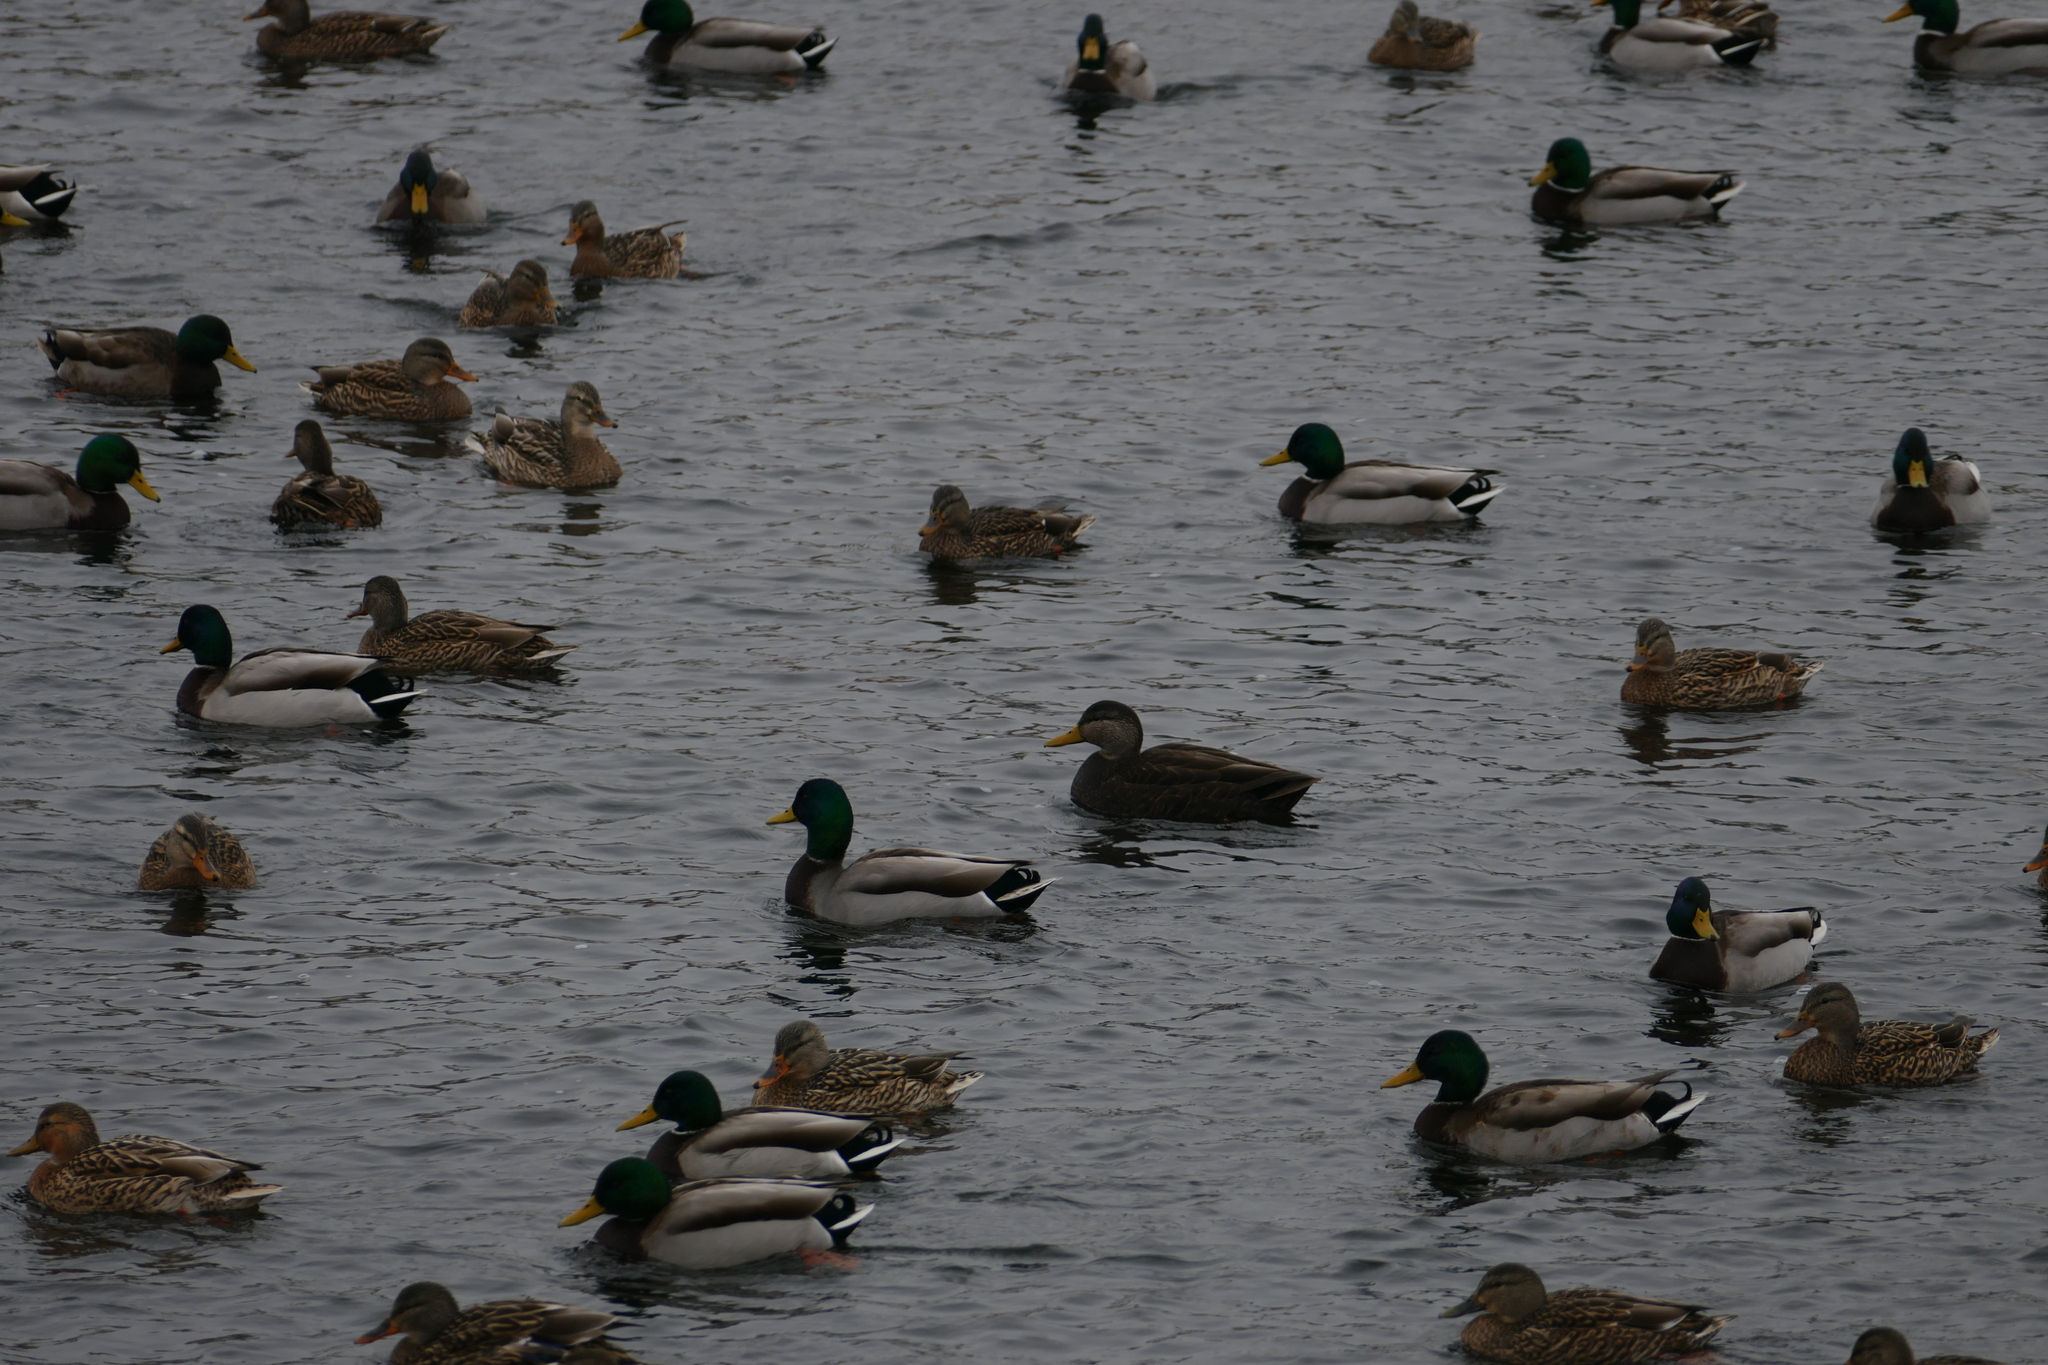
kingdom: Animalia
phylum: Chordata
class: Aves
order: Anseriformes
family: Anatidae
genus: Anas
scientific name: Anas rubripes
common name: American black duck
